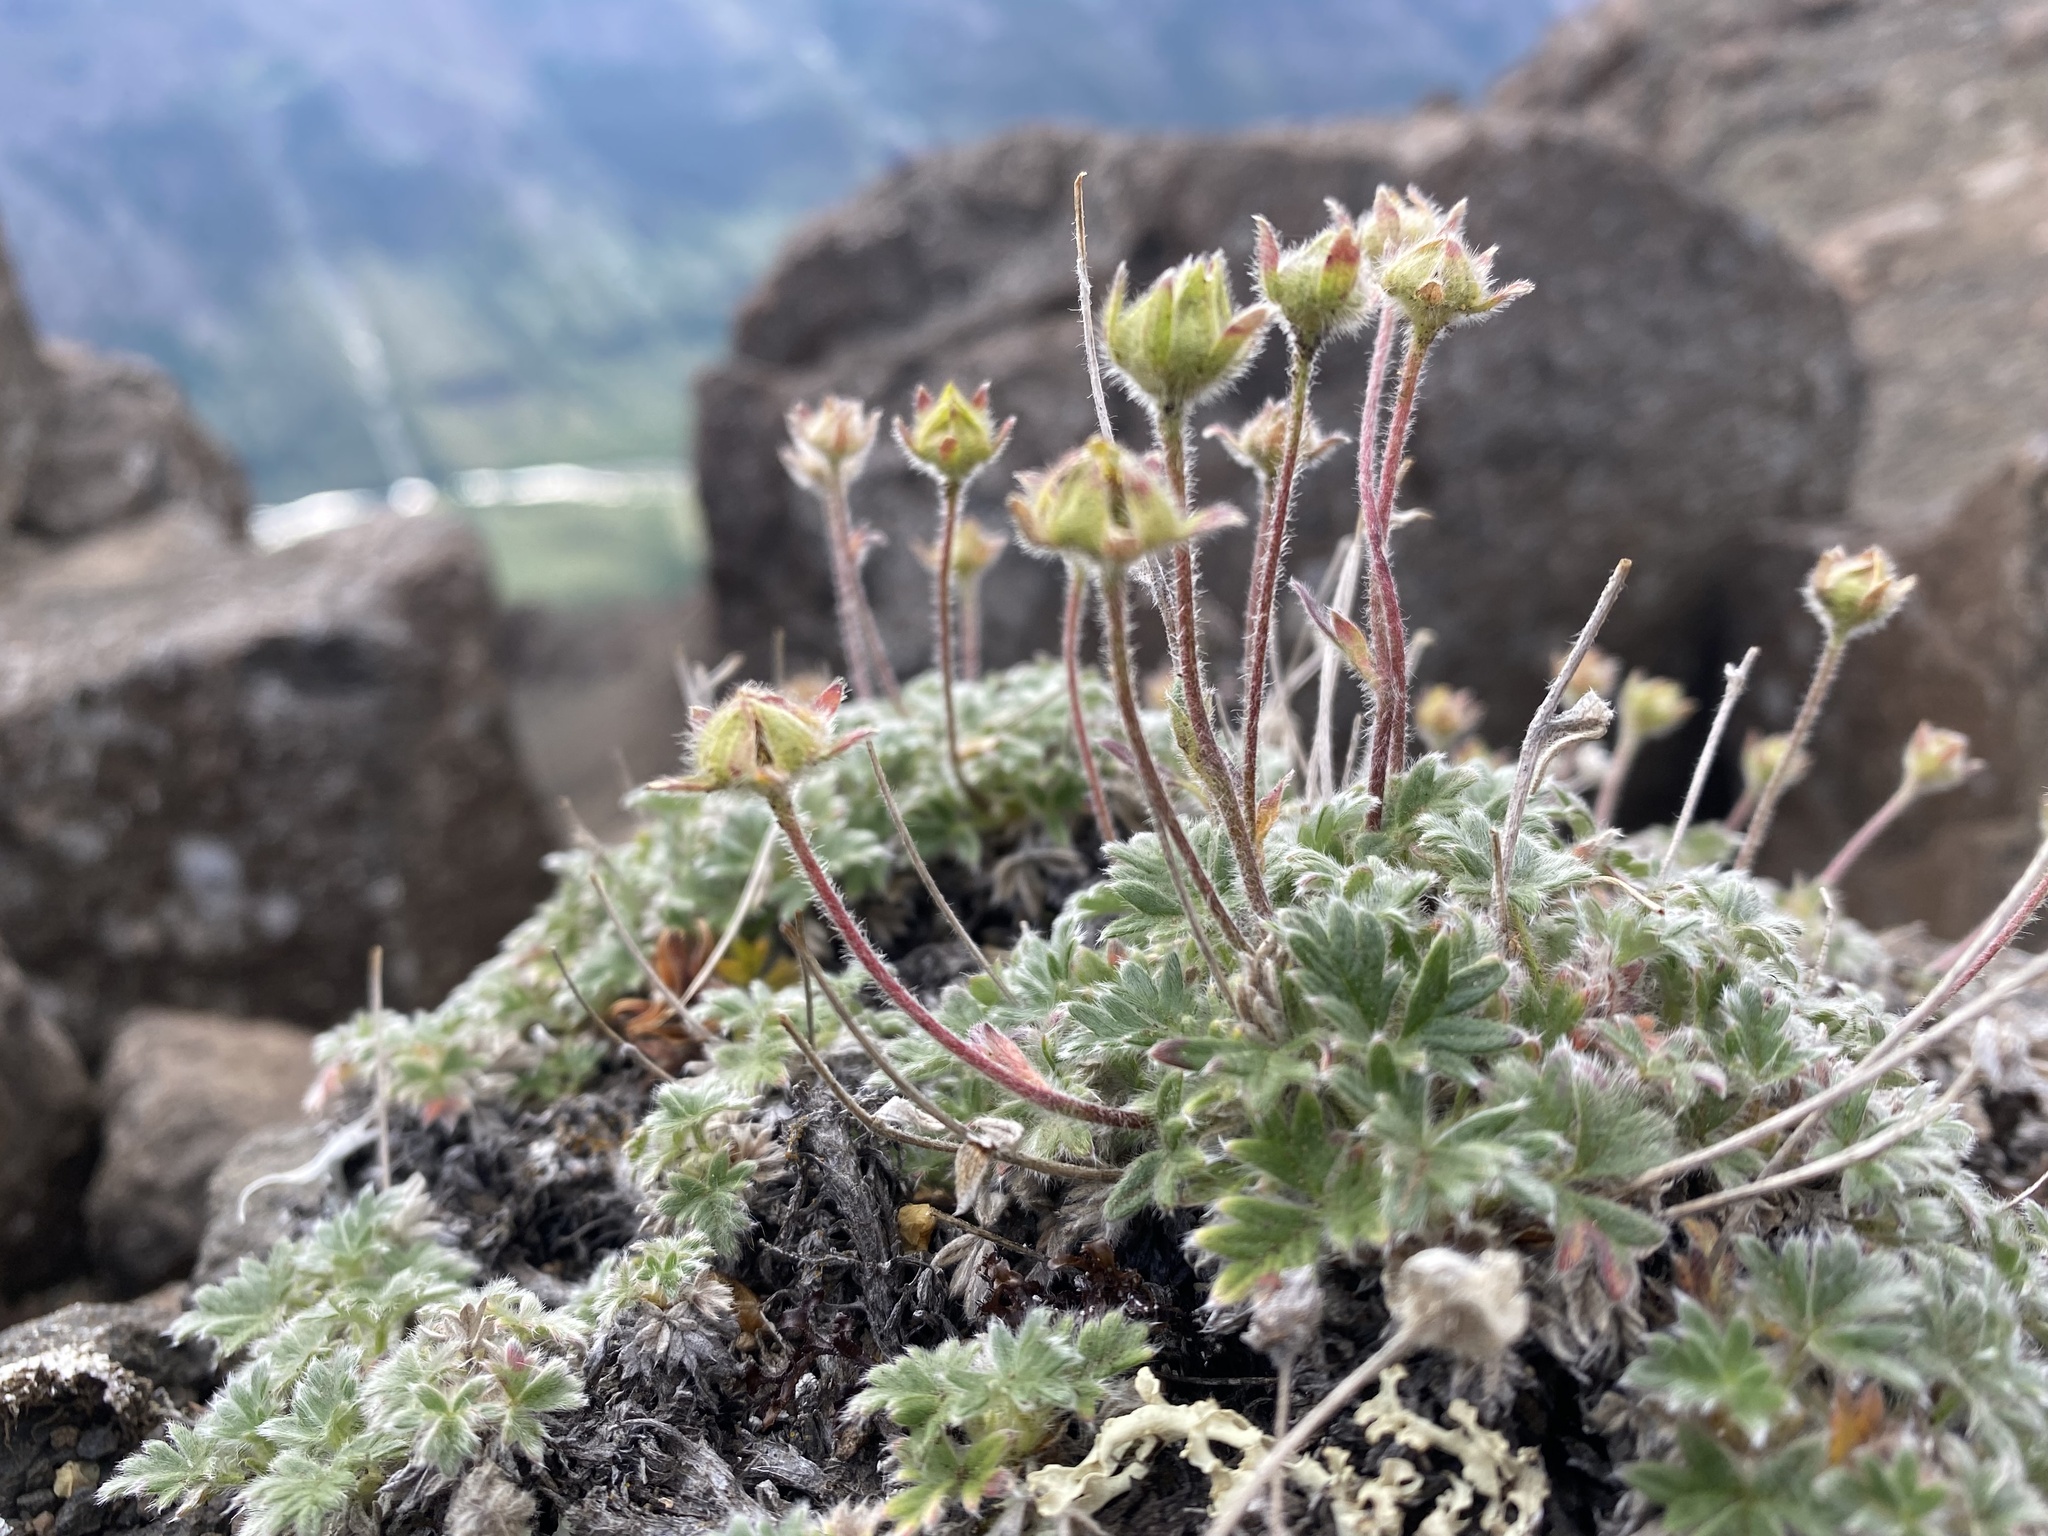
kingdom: Plantae
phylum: Tracheophyta
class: Magnoliopsida
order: Rosales
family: Rosaceae
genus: Potentilla
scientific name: Potentilla subvahliana
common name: Far northern cinquefoil
